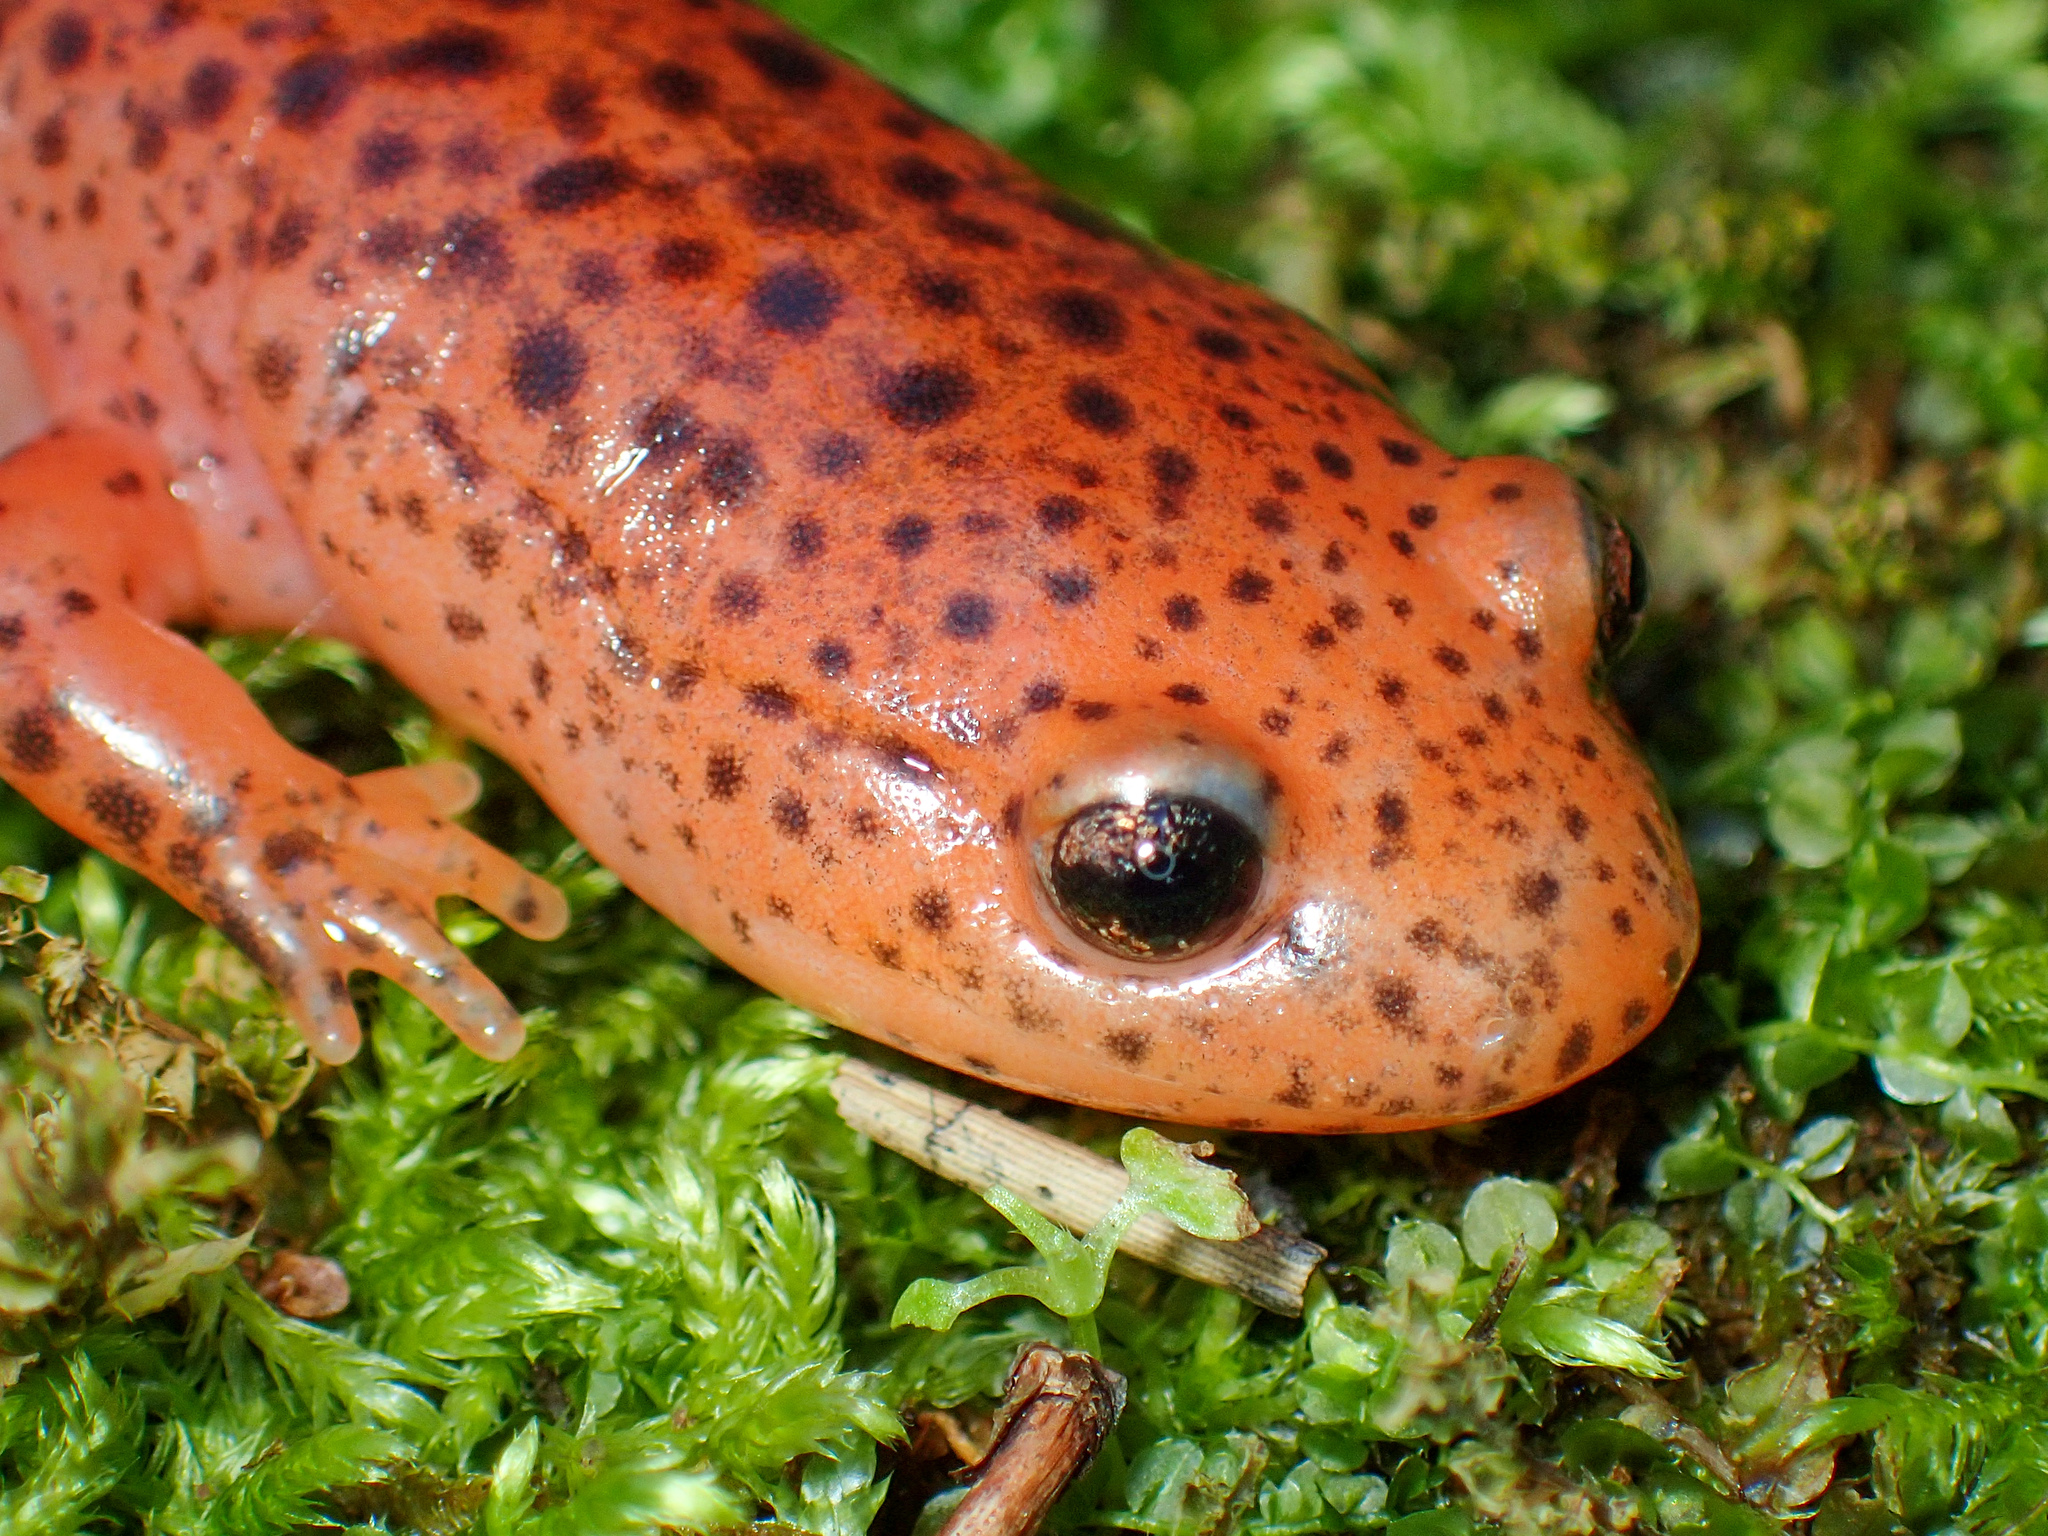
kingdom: Animalia
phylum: Chordata
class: Amphibia
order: Caudata
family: Plethodontidae
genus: Pseudotriton
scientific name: Pseudotriton ruber
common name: Red salamander
